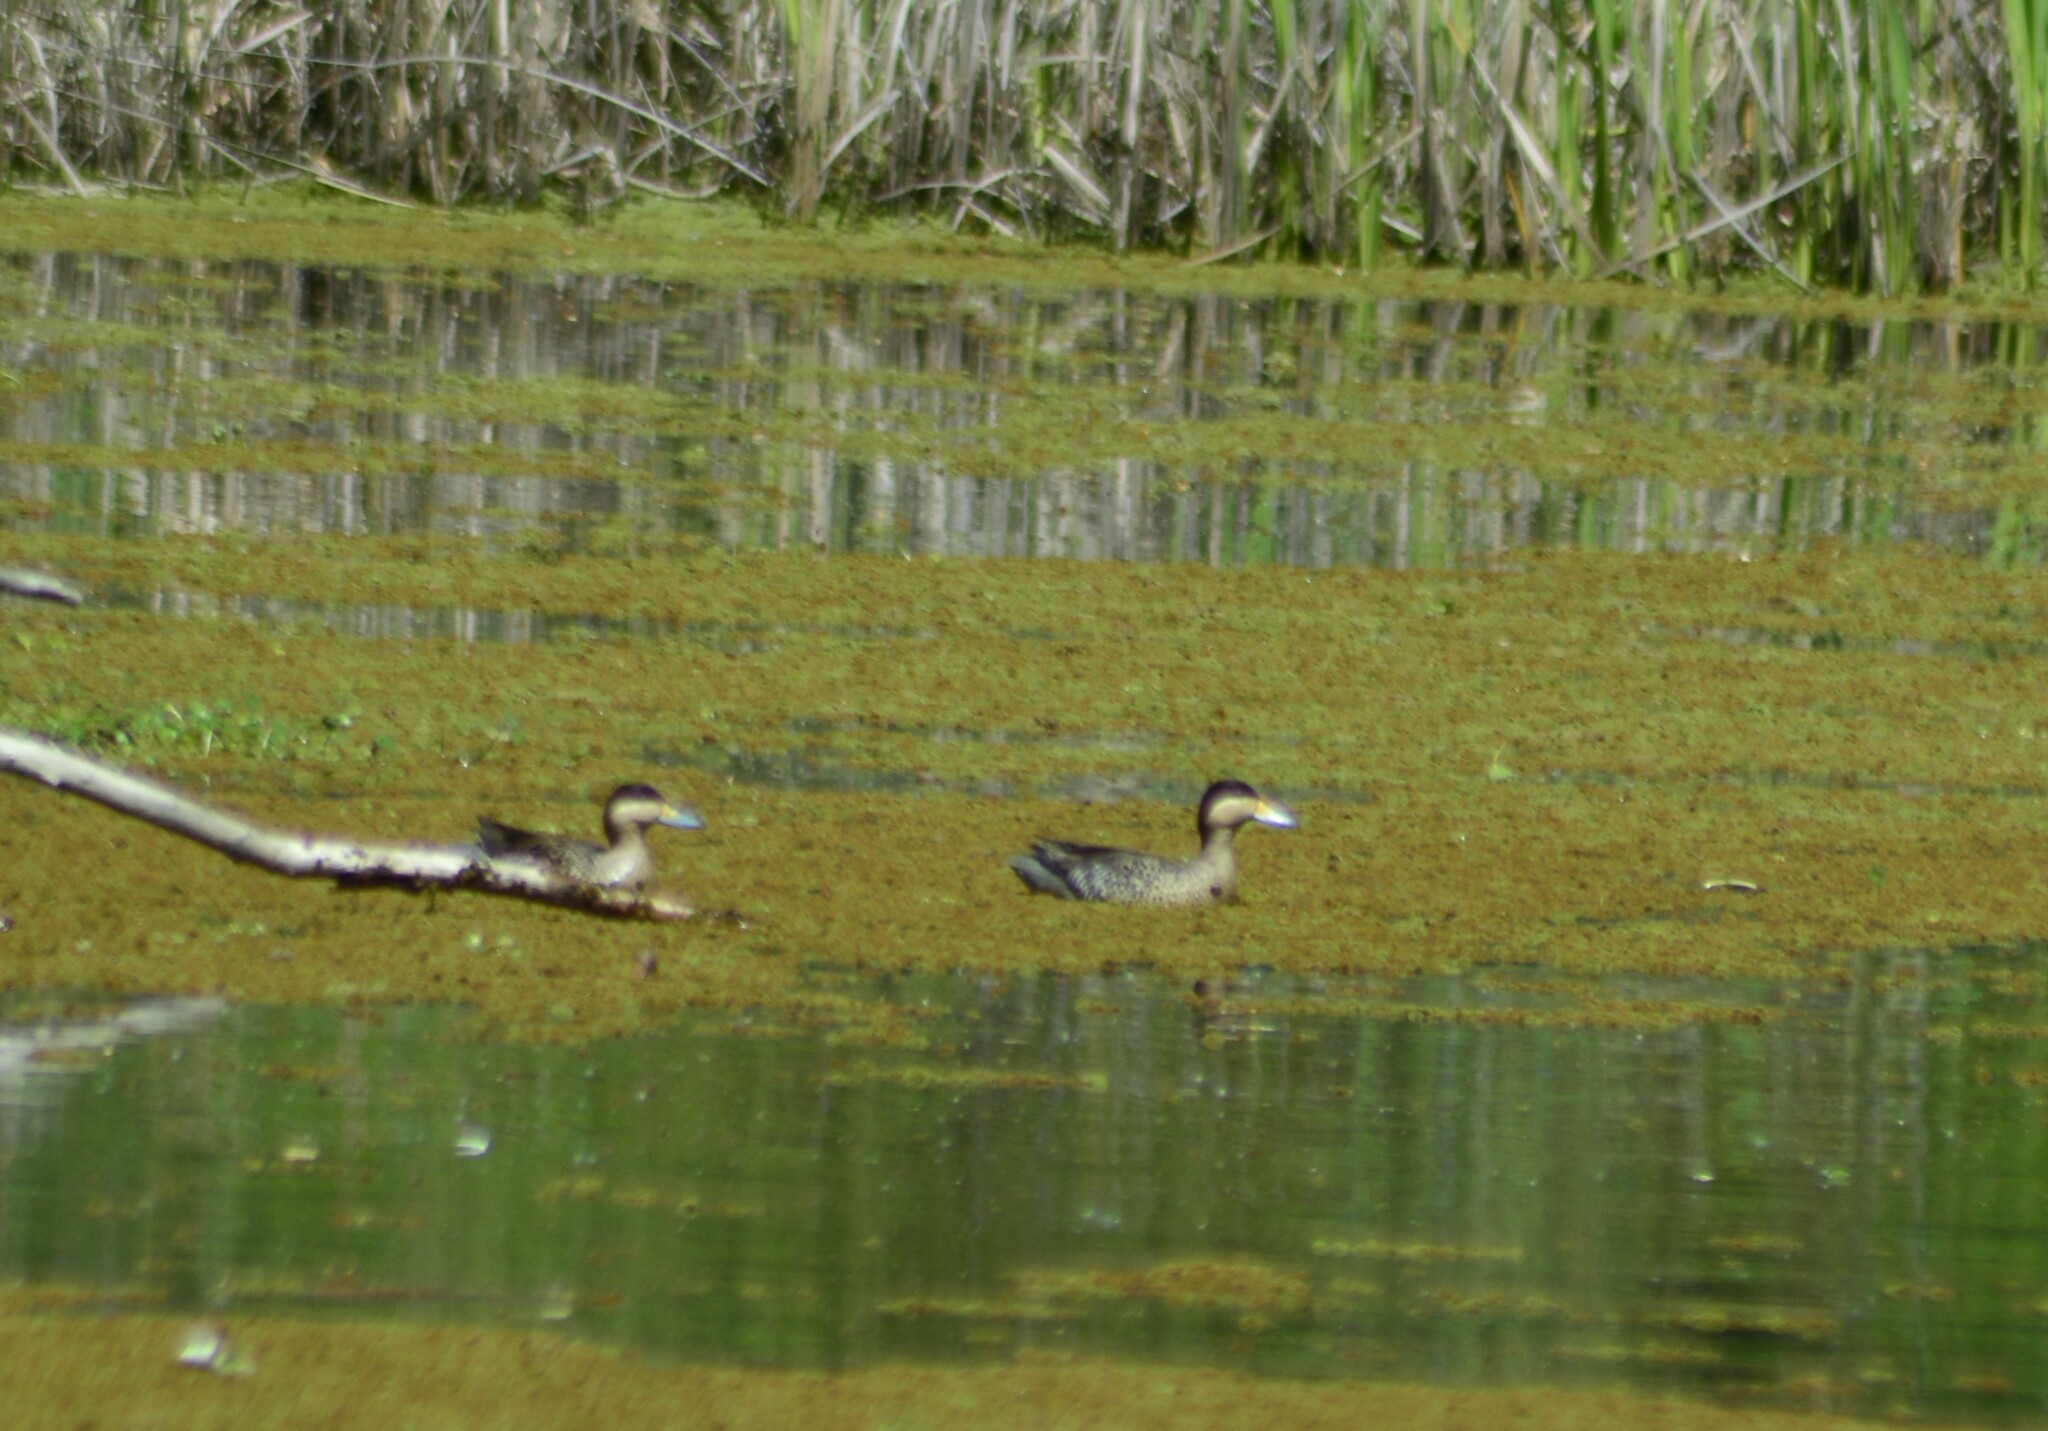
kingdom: Animalia
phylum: Chordata
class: Aves
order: Anseriformes
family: Anatidae
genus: Spatula
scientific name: Spatula versicolor
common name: Silver teal
